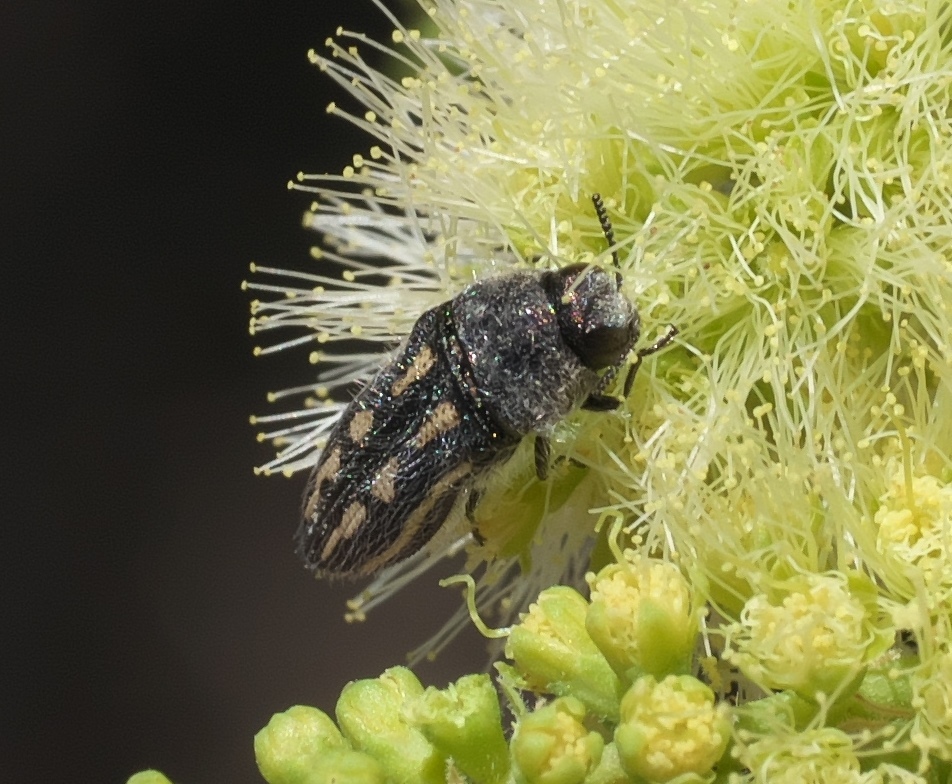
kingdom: Animalia
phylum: Arthropoda
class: Insecta
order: Coleoptera
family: Buprestidae
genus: Acmaeodera
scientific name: Acmaeodera pubiventris
